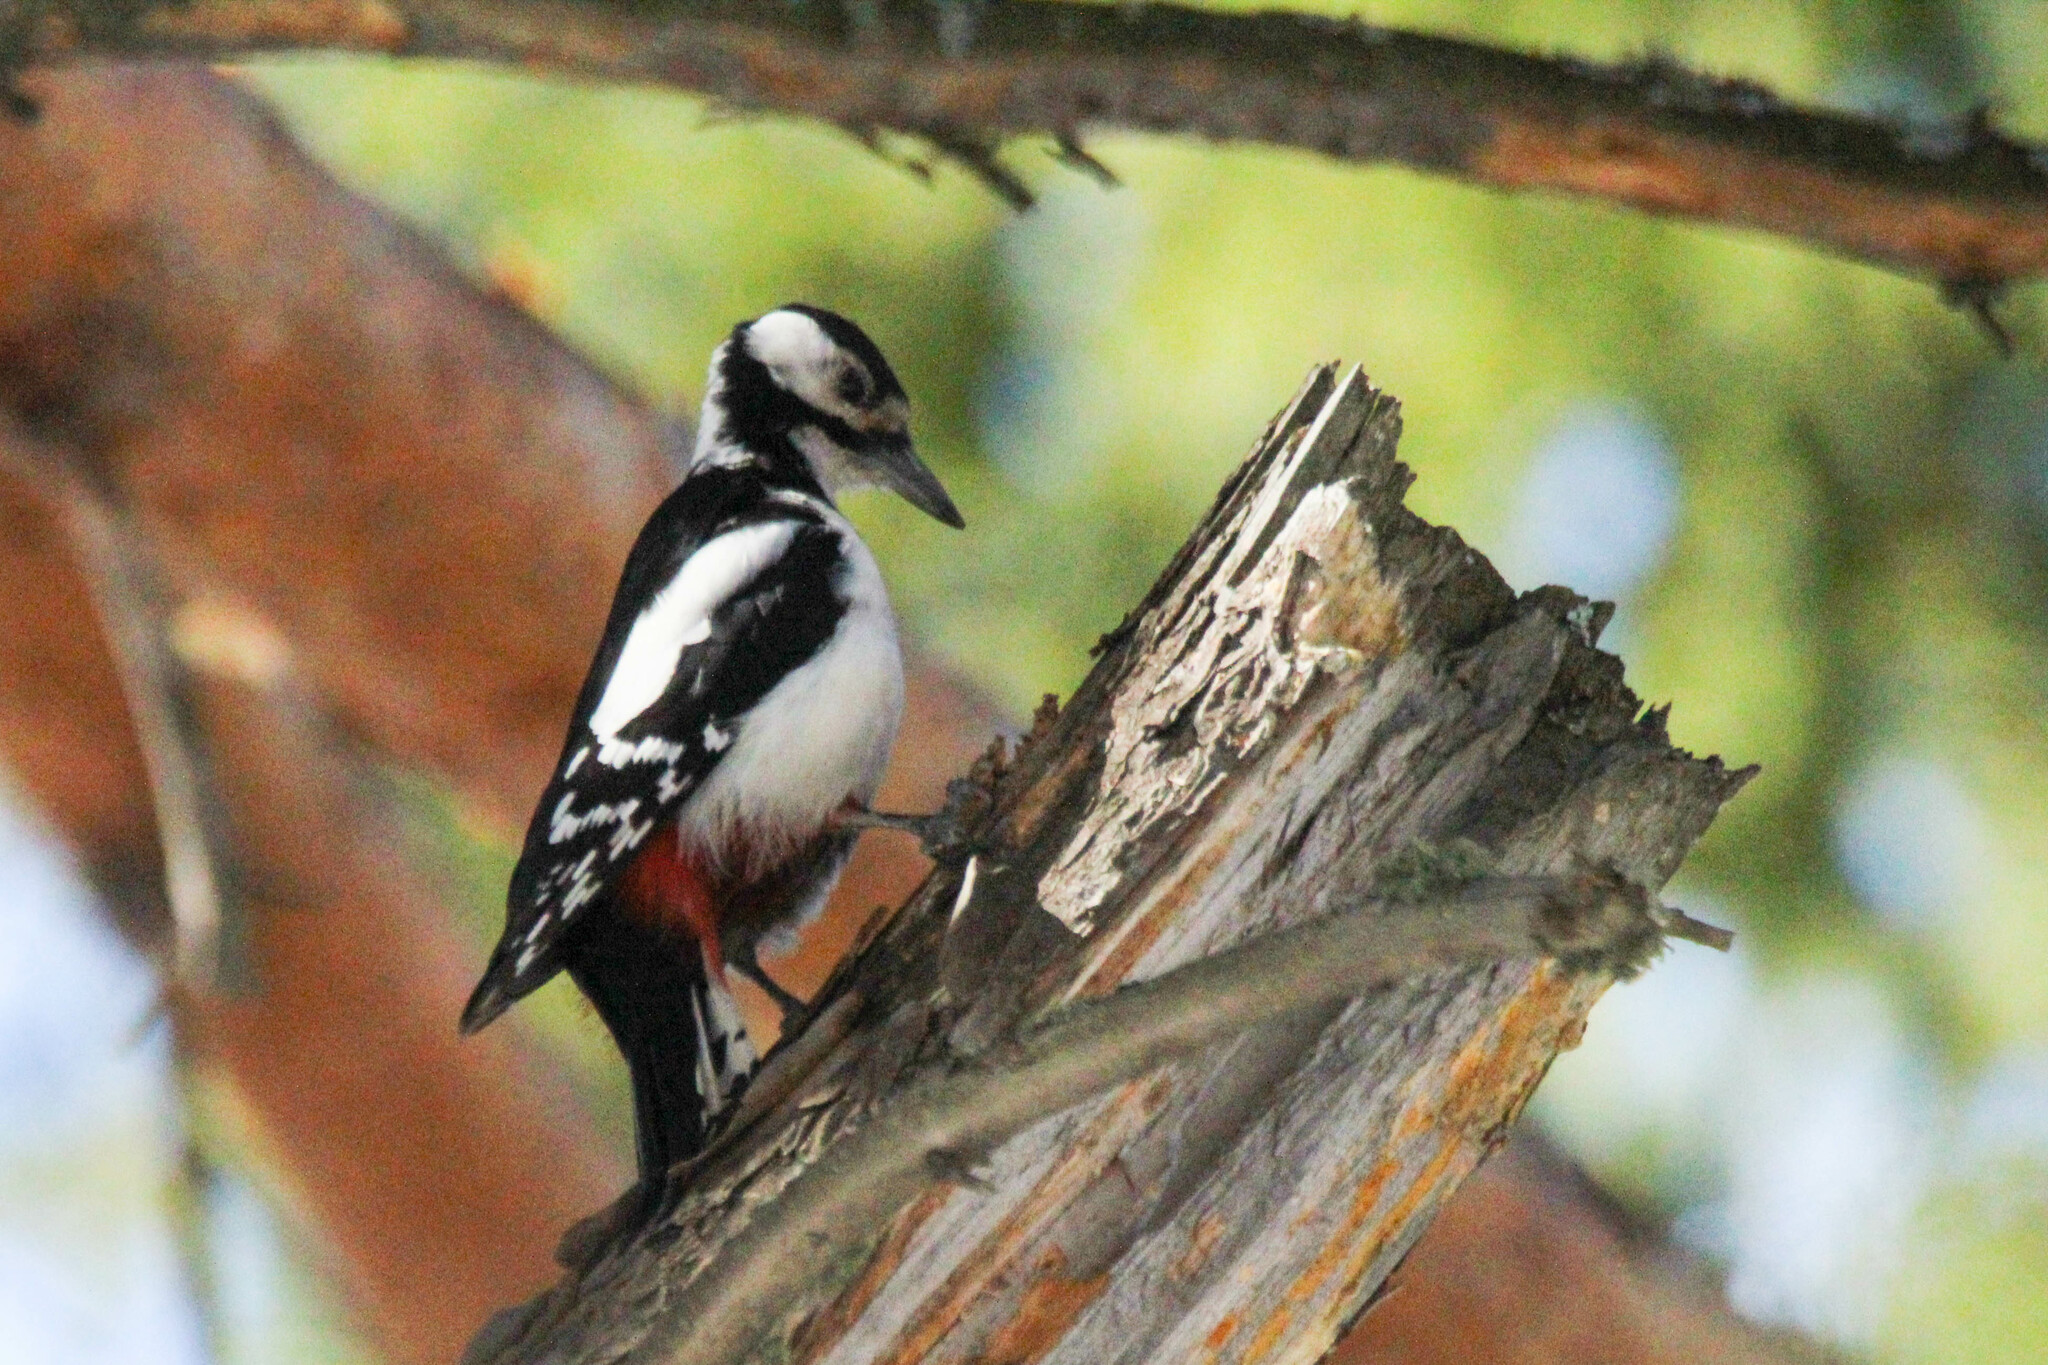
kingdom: Animalia
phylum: Chordata
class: Aves
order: Piciformes
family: Picidae
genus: Dendrocopos
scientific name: Dendrocopos major
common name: Great spotted woodpecker
